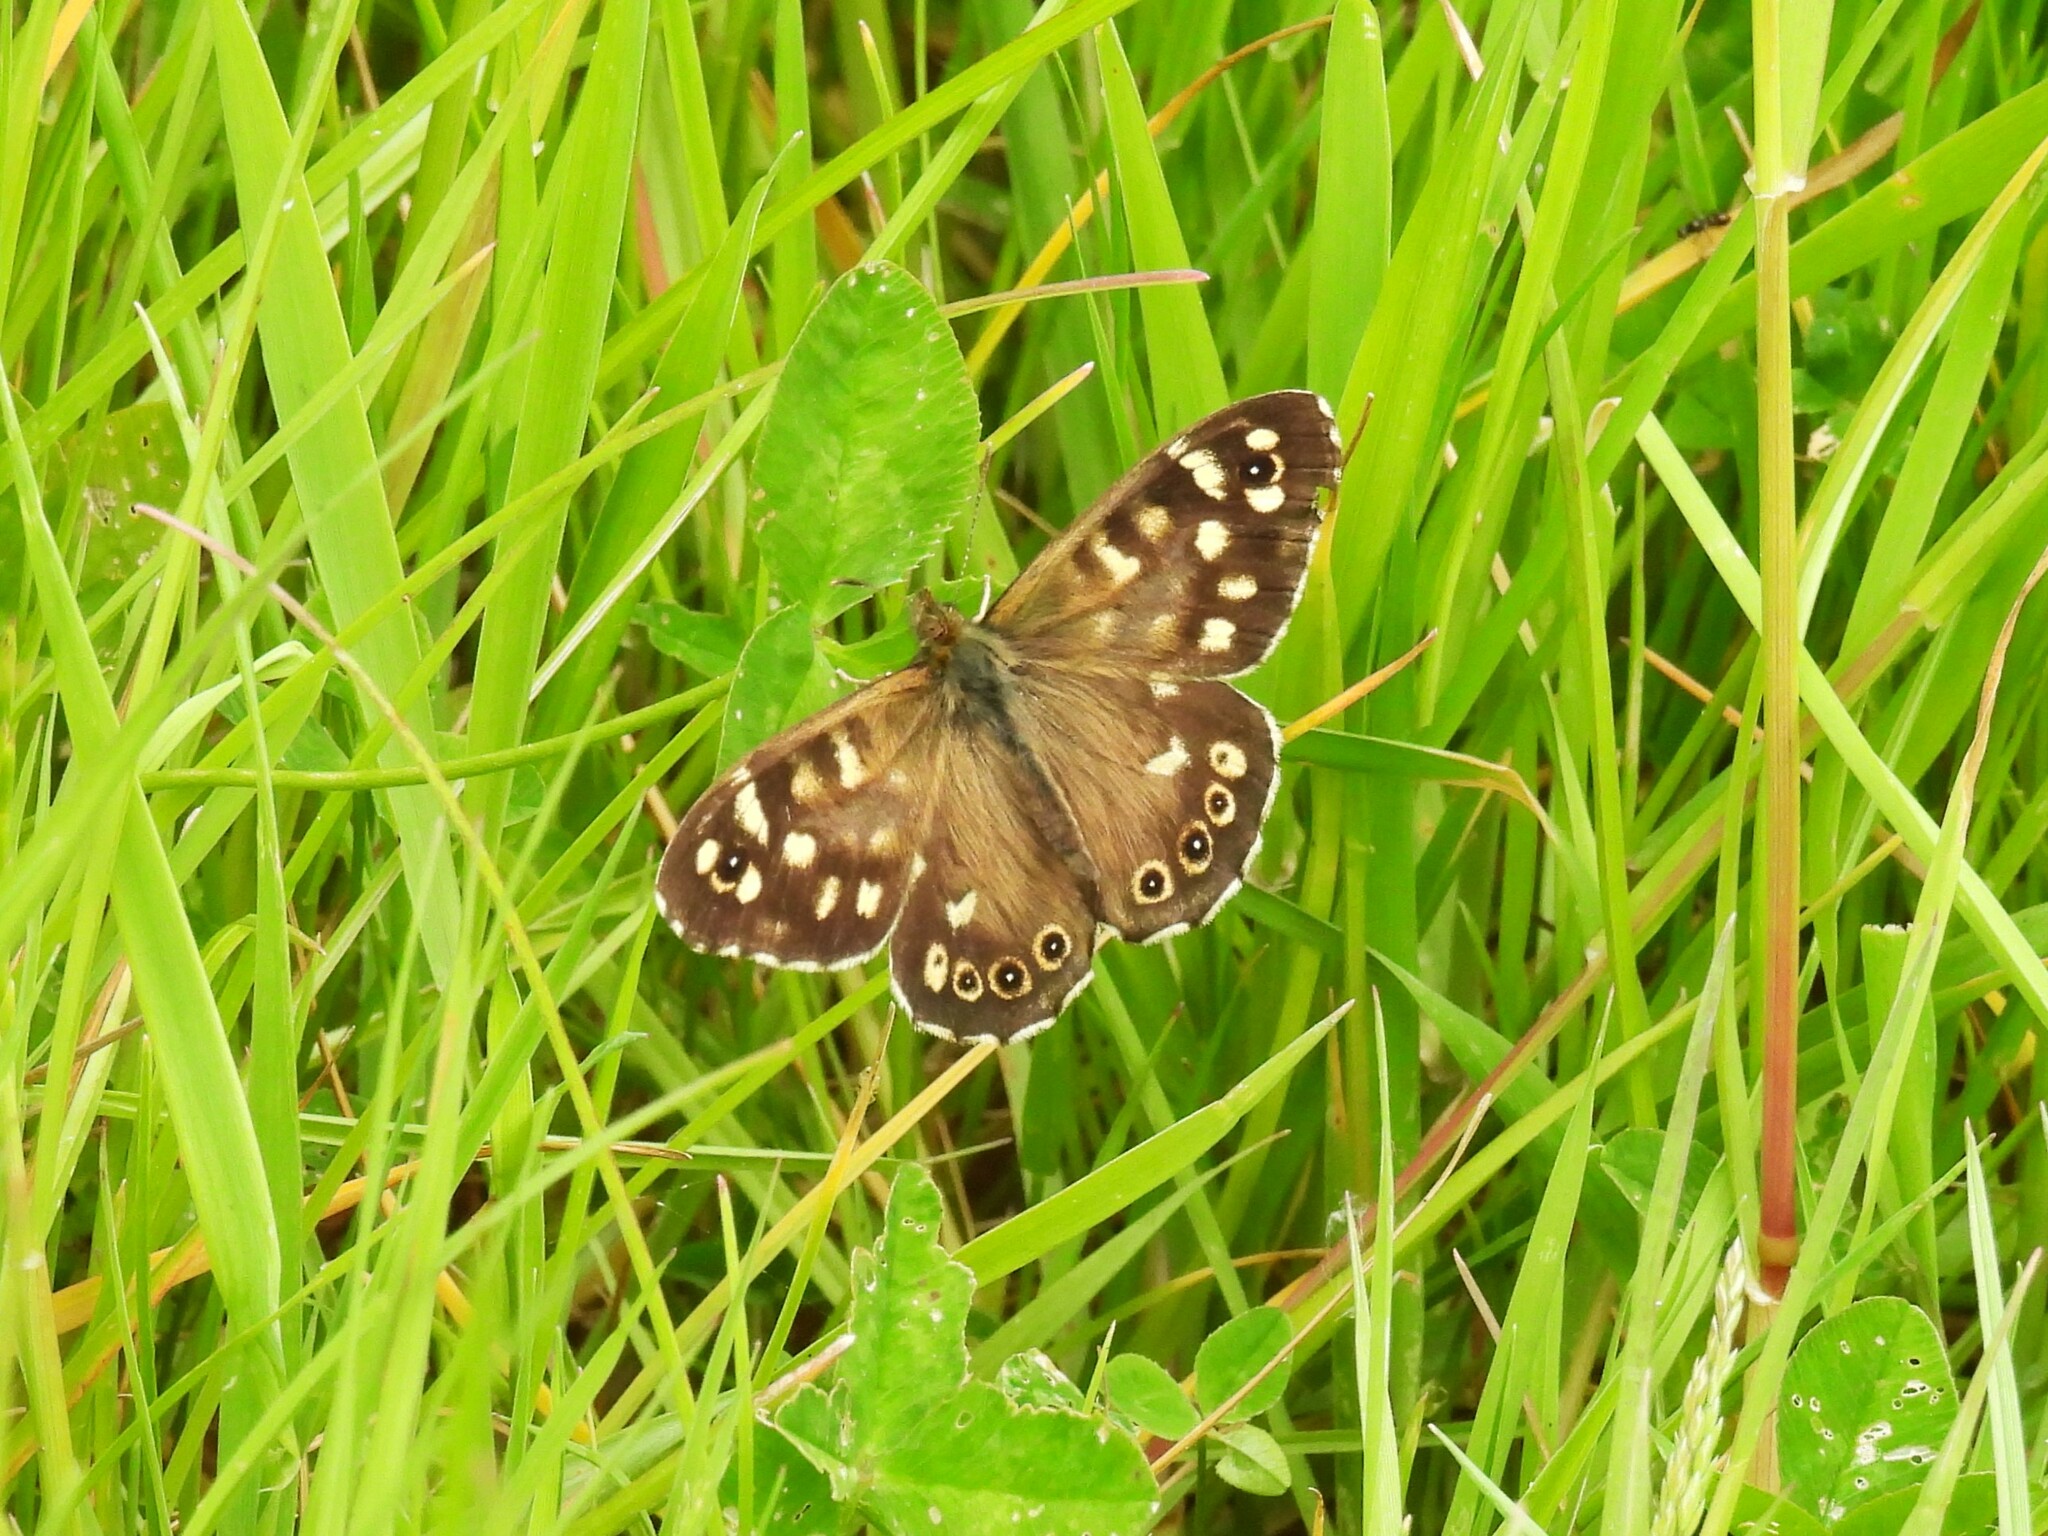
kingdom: Animalia
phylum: Arthropoda
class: Insecta
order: Lepidoptera
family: Nymphalidae
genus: Pararge
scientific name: Pararge aegeria
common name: Speckled wood
